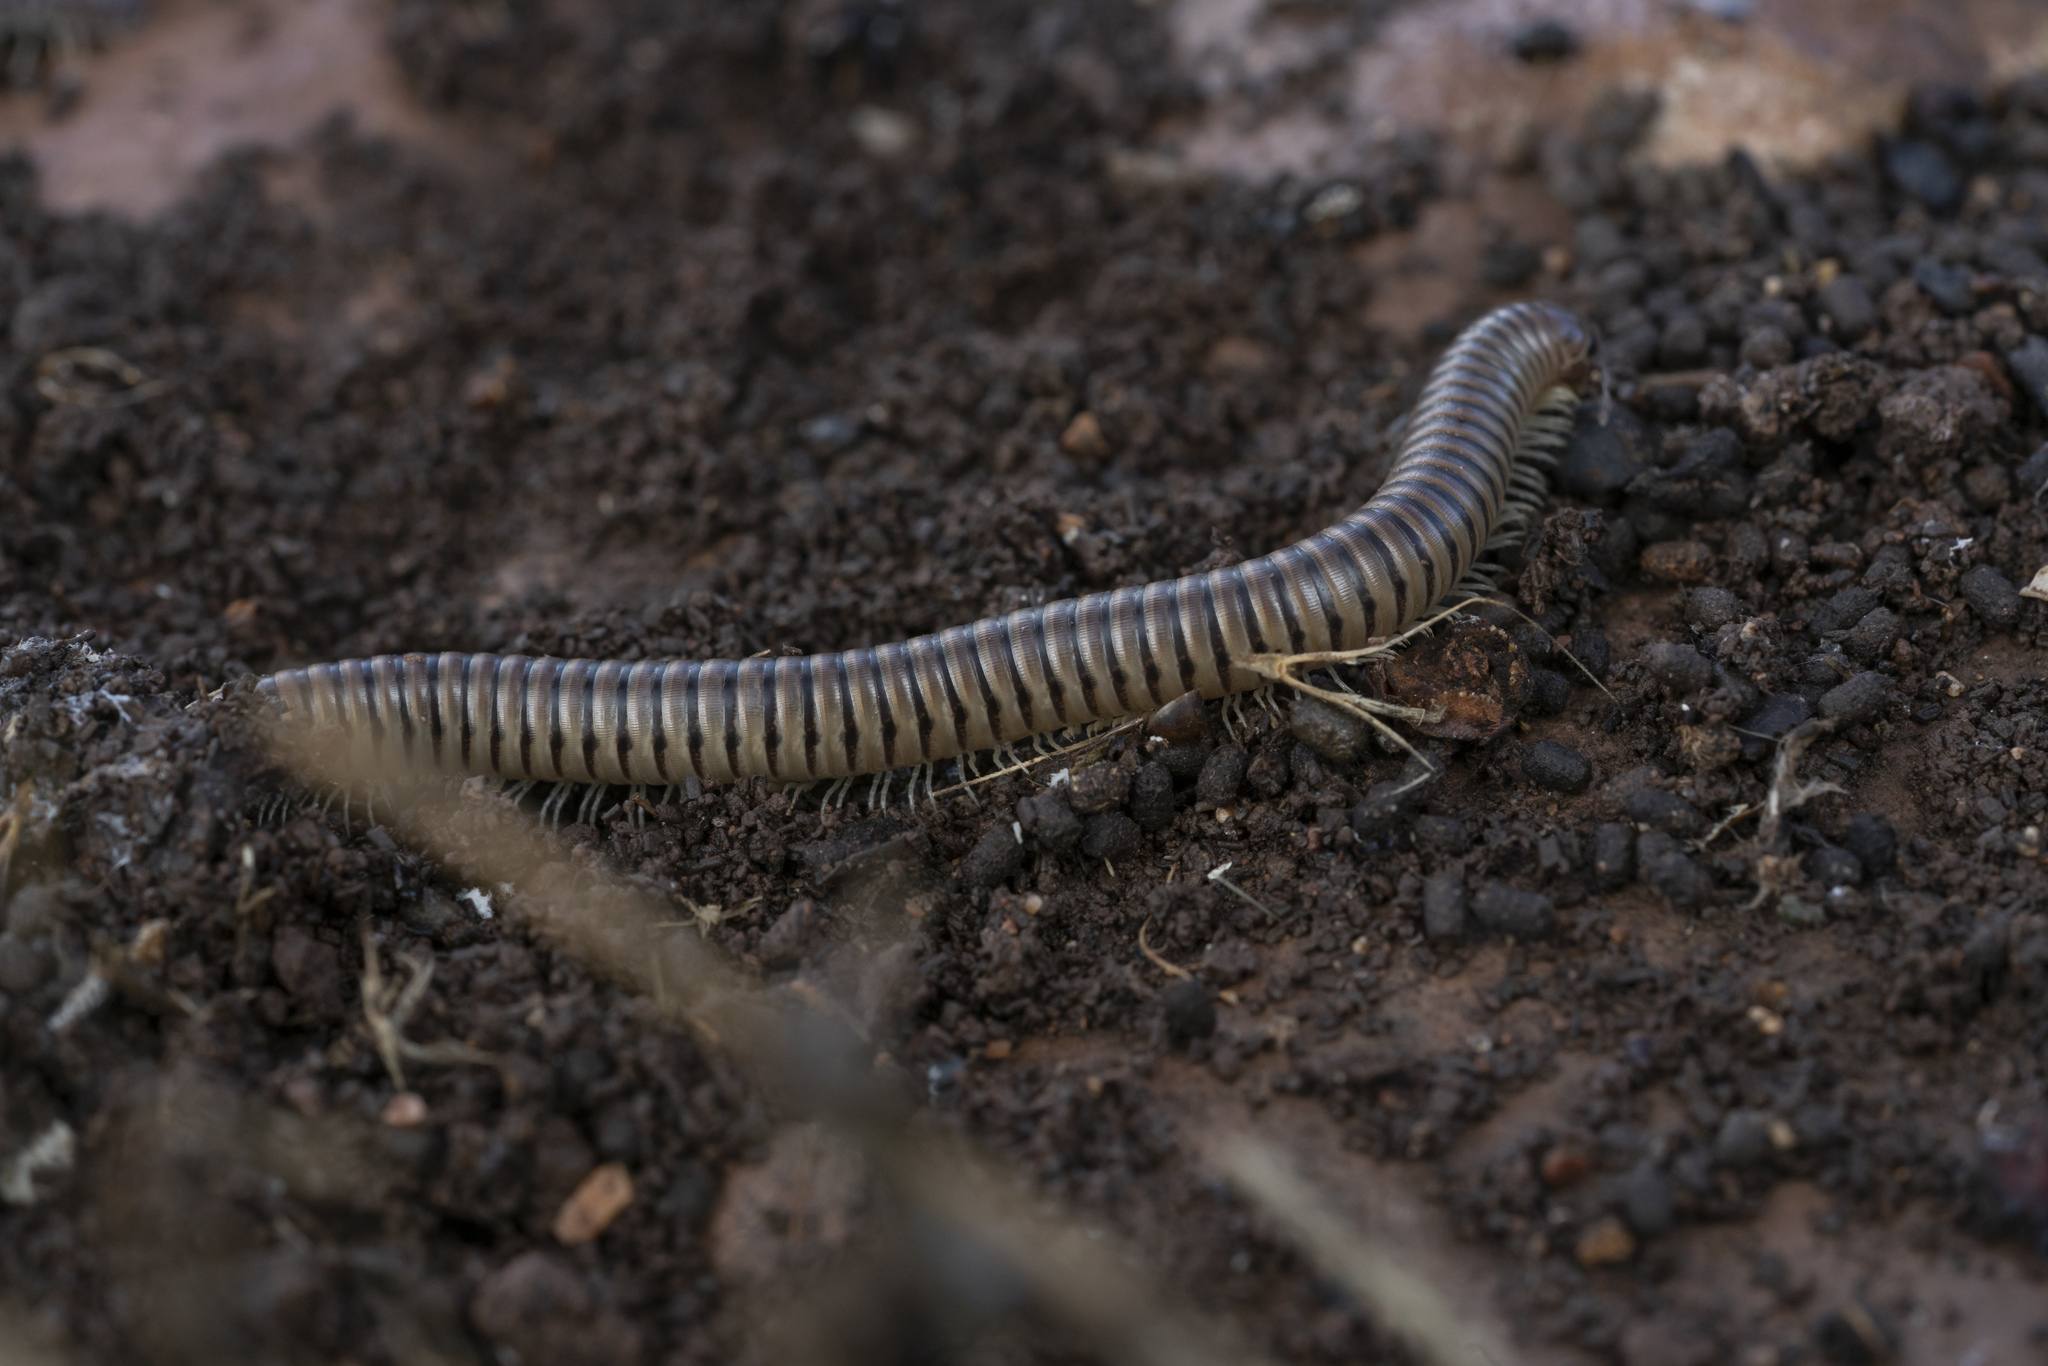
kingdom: Animalia
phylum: Arthropoda
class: Diplopoda
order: Julida
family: Julidae
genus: Pachyiulus
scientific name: Pachyiulus asiaeminoris
